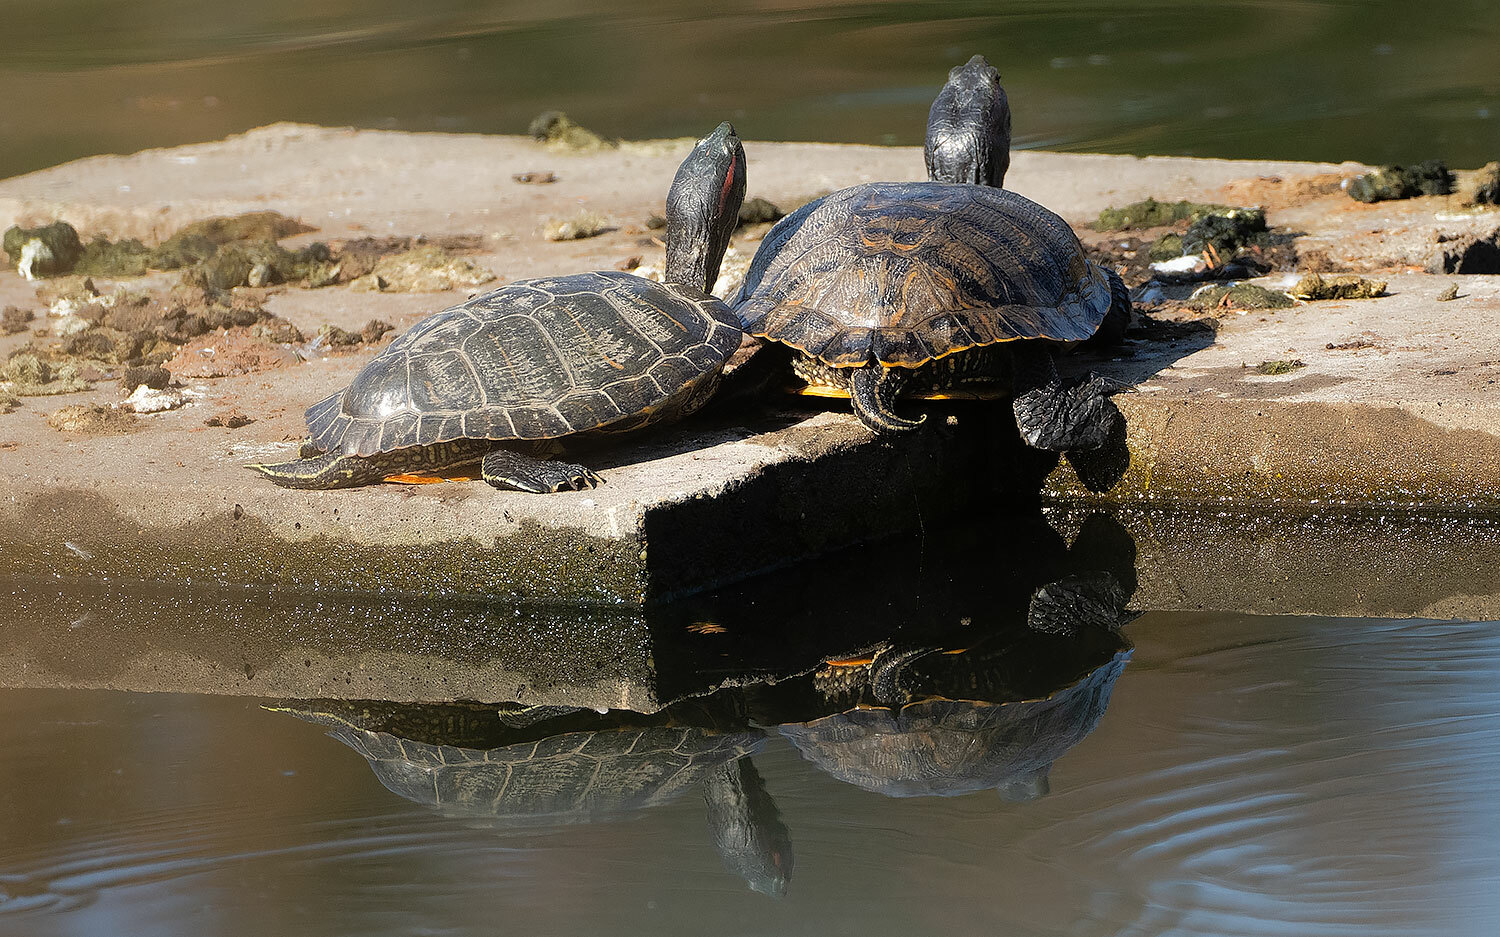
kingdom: Animalia
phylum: Chordata
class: Testudines
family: Emydidae
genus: Trachemys
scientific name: Trachemys scripta
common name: Slider
